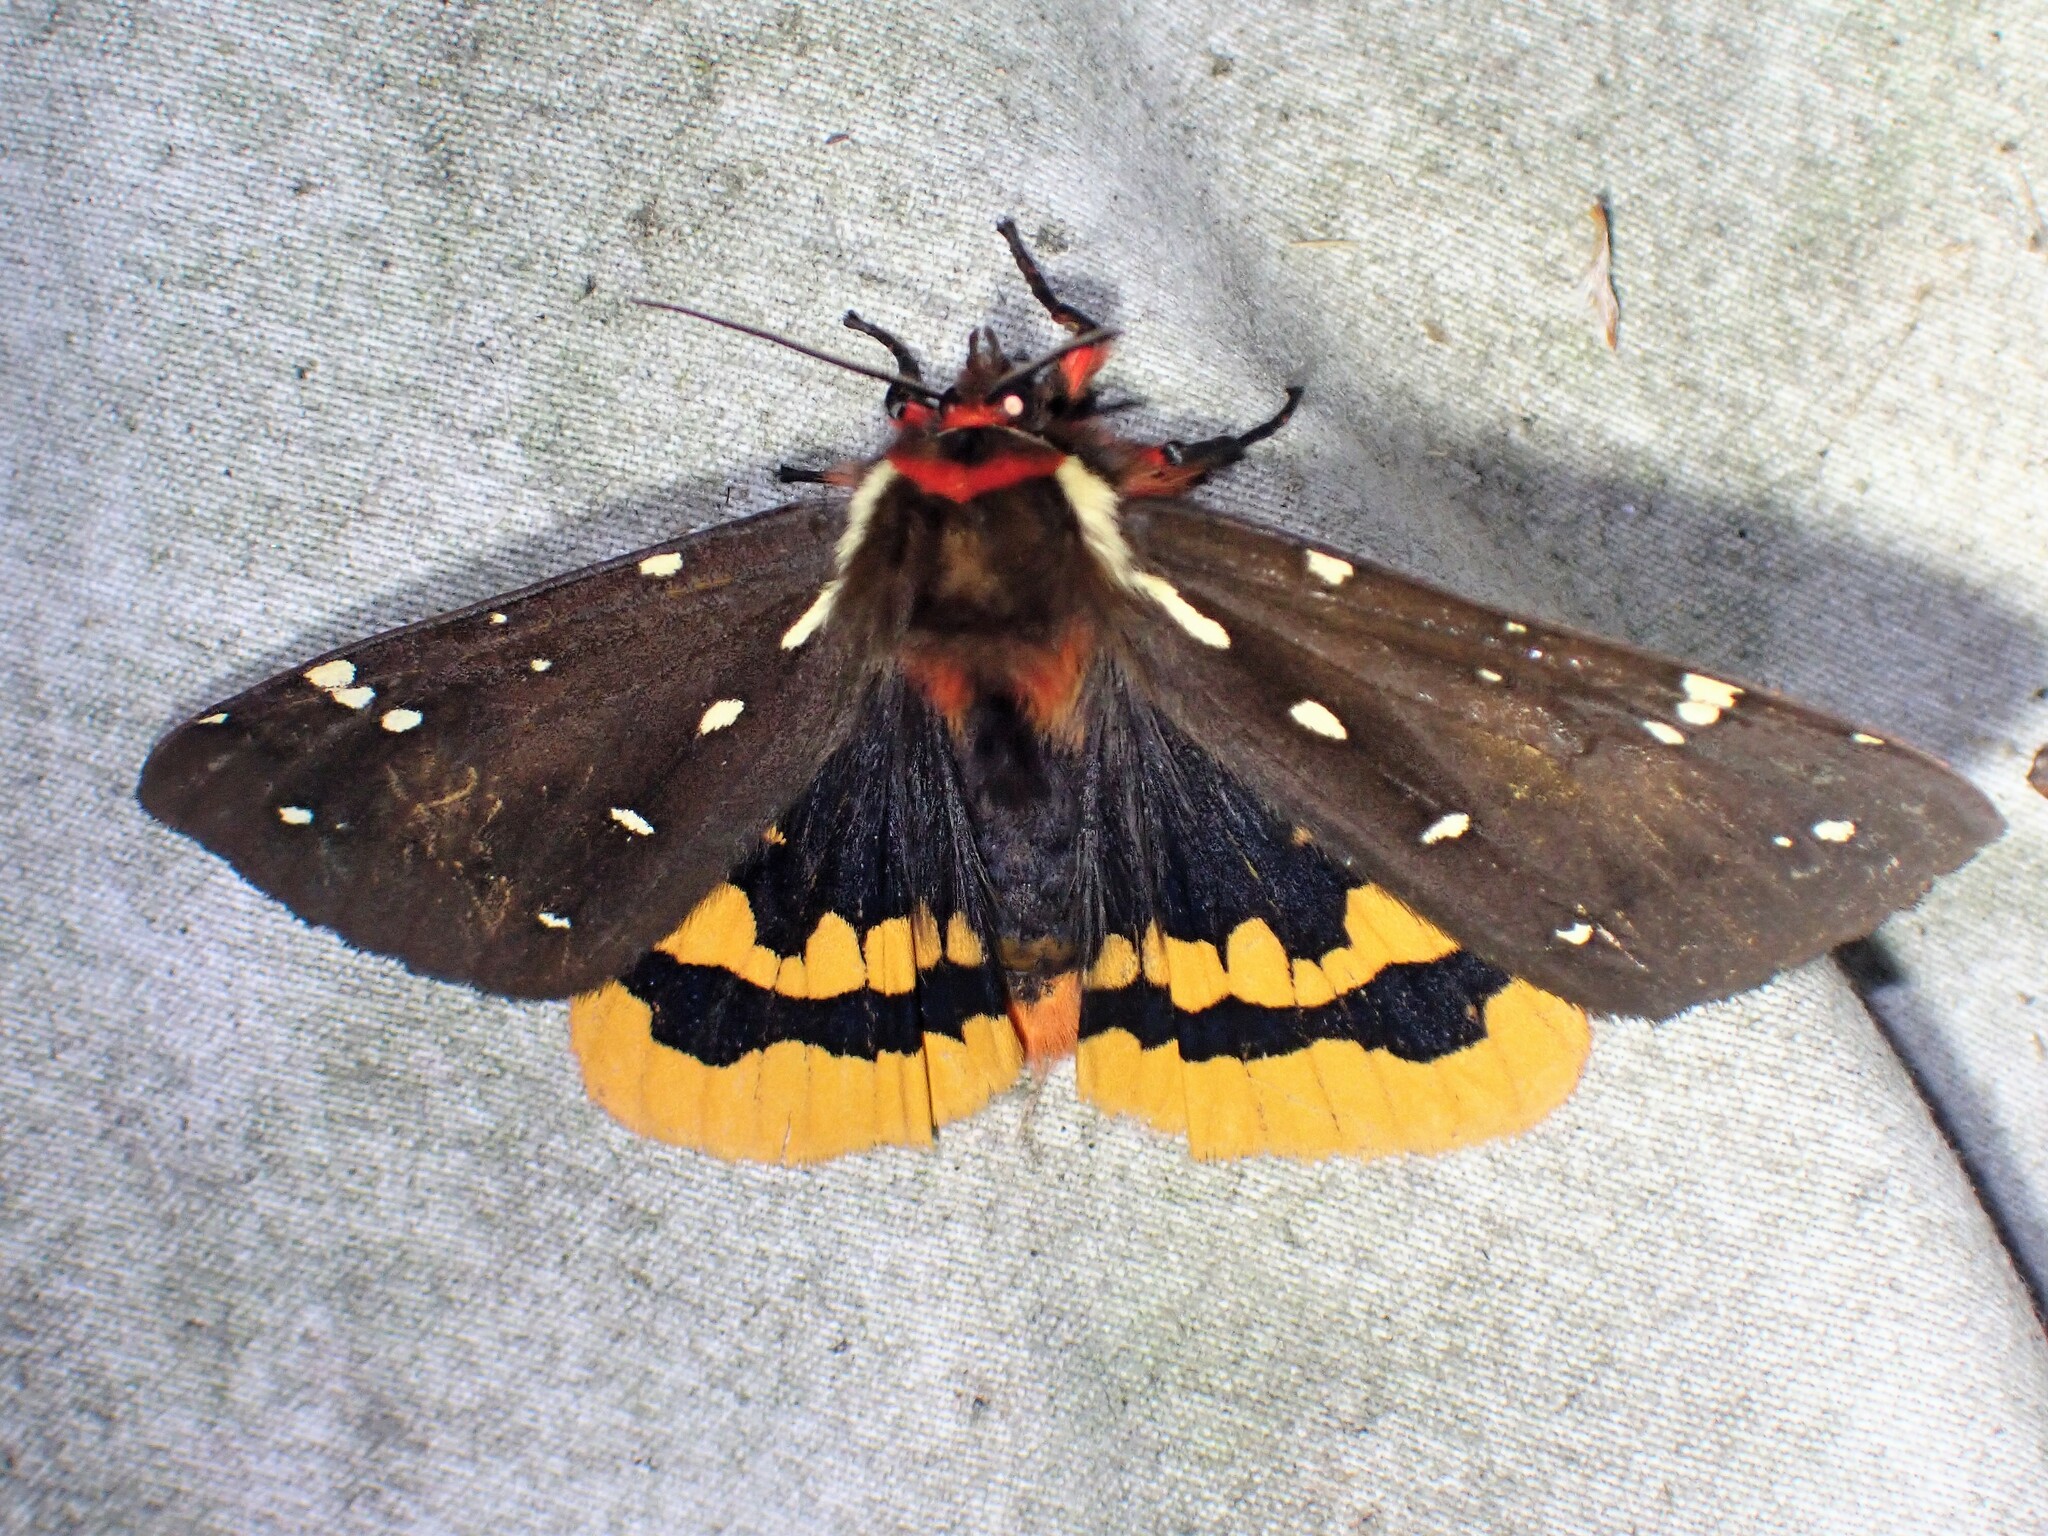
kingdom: Animalia
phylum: Arthropoda
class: Insecta
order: Lepidoptera
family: Erebidae
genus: Arctia
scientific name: Arctia parthenos
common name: St. lawrence tiger moth
